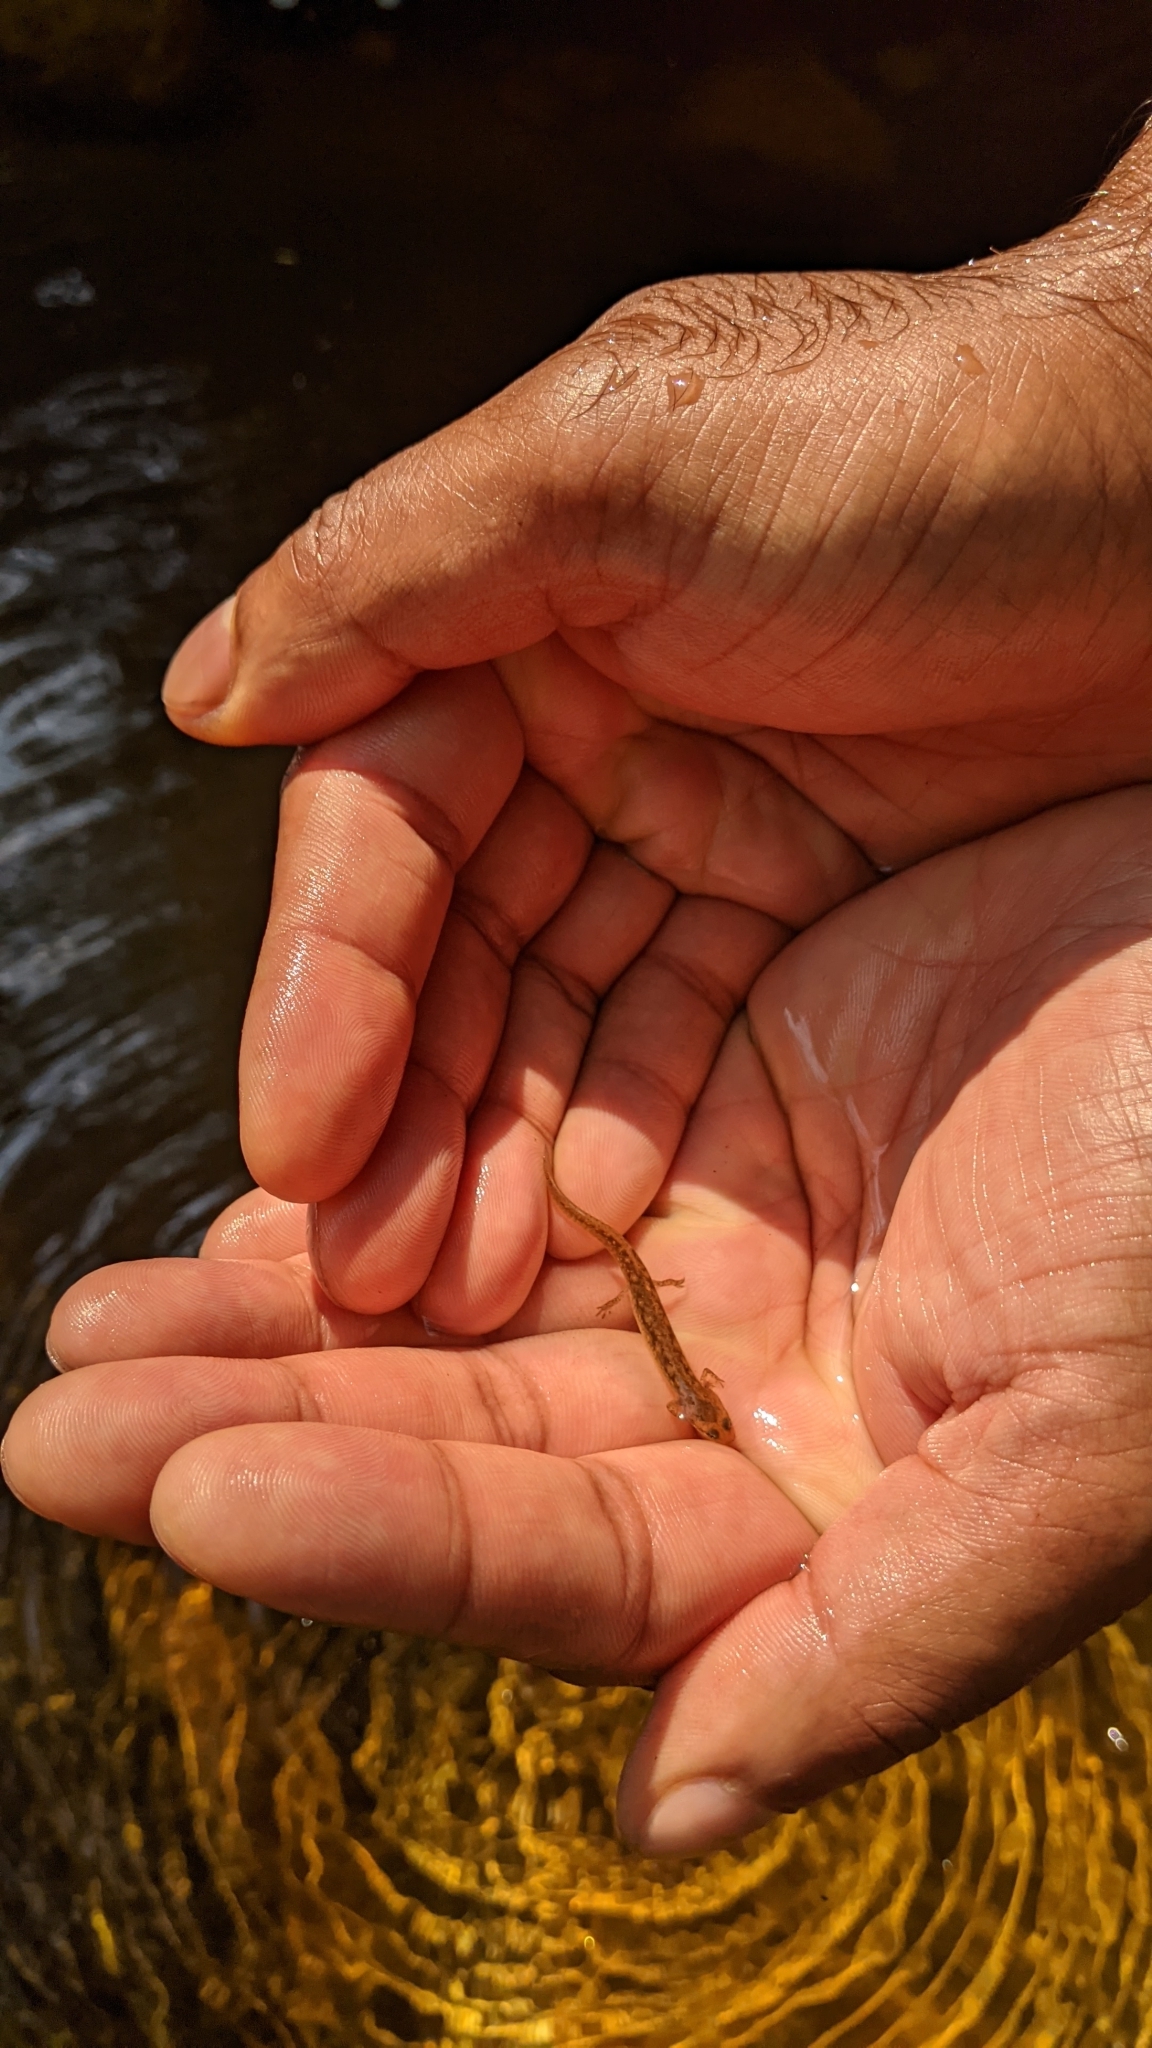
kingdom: Animalia
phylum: Chordata
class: Amphibia
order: Caudata
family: Plethodontidae
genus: Eurycea
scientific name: Eurycea bislineata
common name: Northern two-lined salamander
